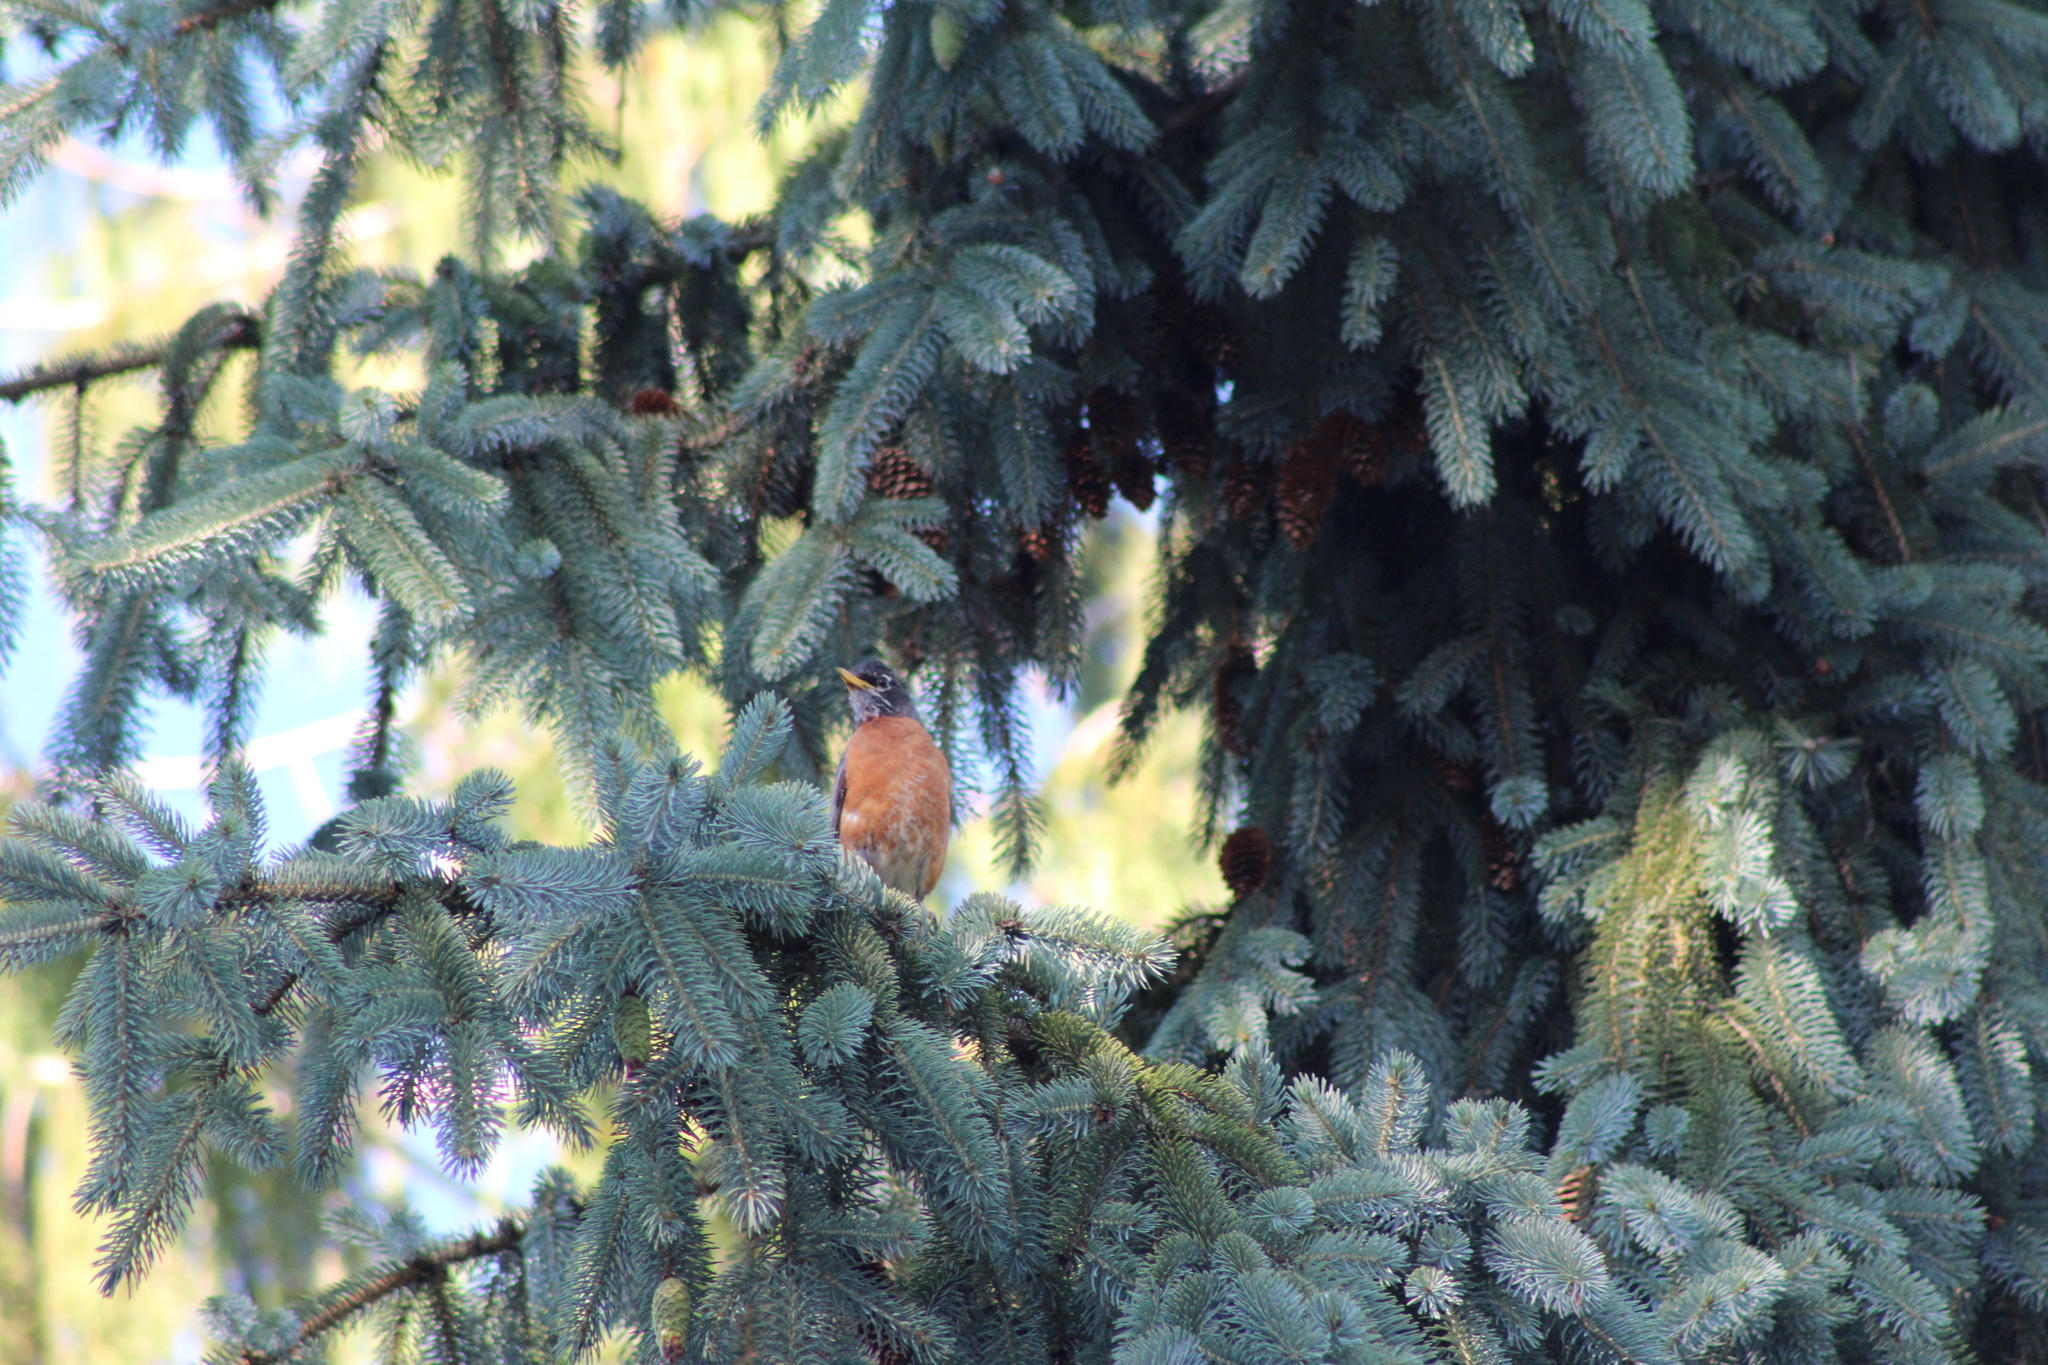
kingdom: Animalia
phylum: Chordata
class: Aves
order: Passeriformes
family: Turdidae
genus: Turdus
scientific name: Turdus migratorius
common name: American robin
